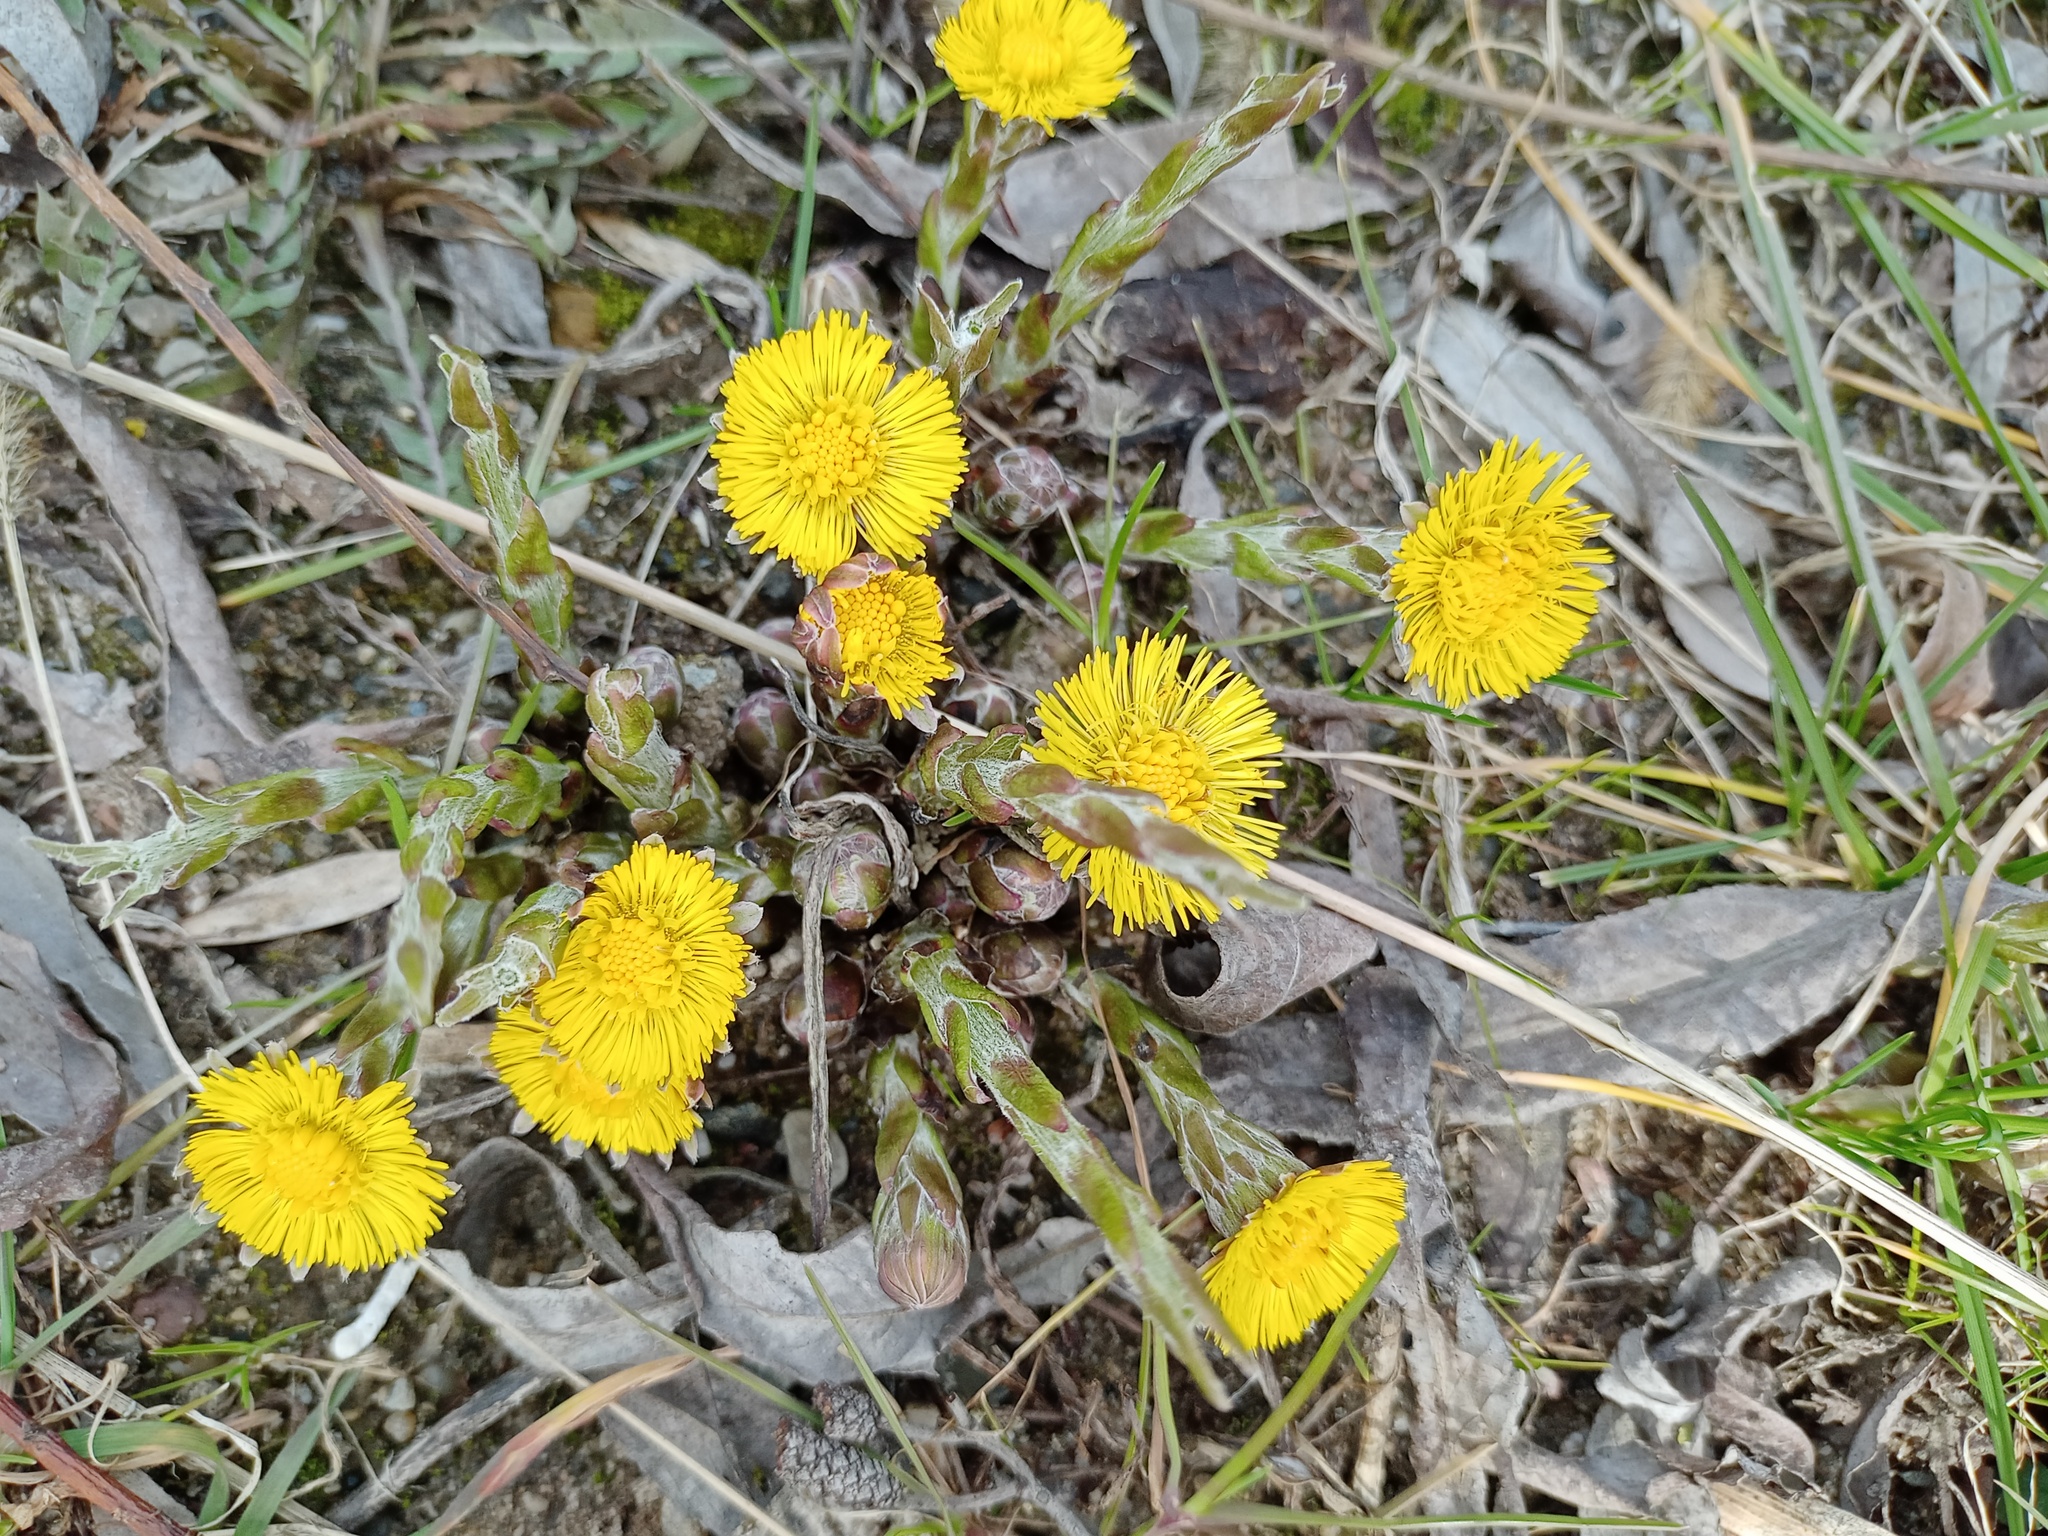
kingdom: Plantae
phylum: Tracheophyta
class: Magnoliopsida
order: Asterales
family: Asteraceae
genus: Tussilago
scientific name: Tussilago farfara
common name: Coltsfoot
